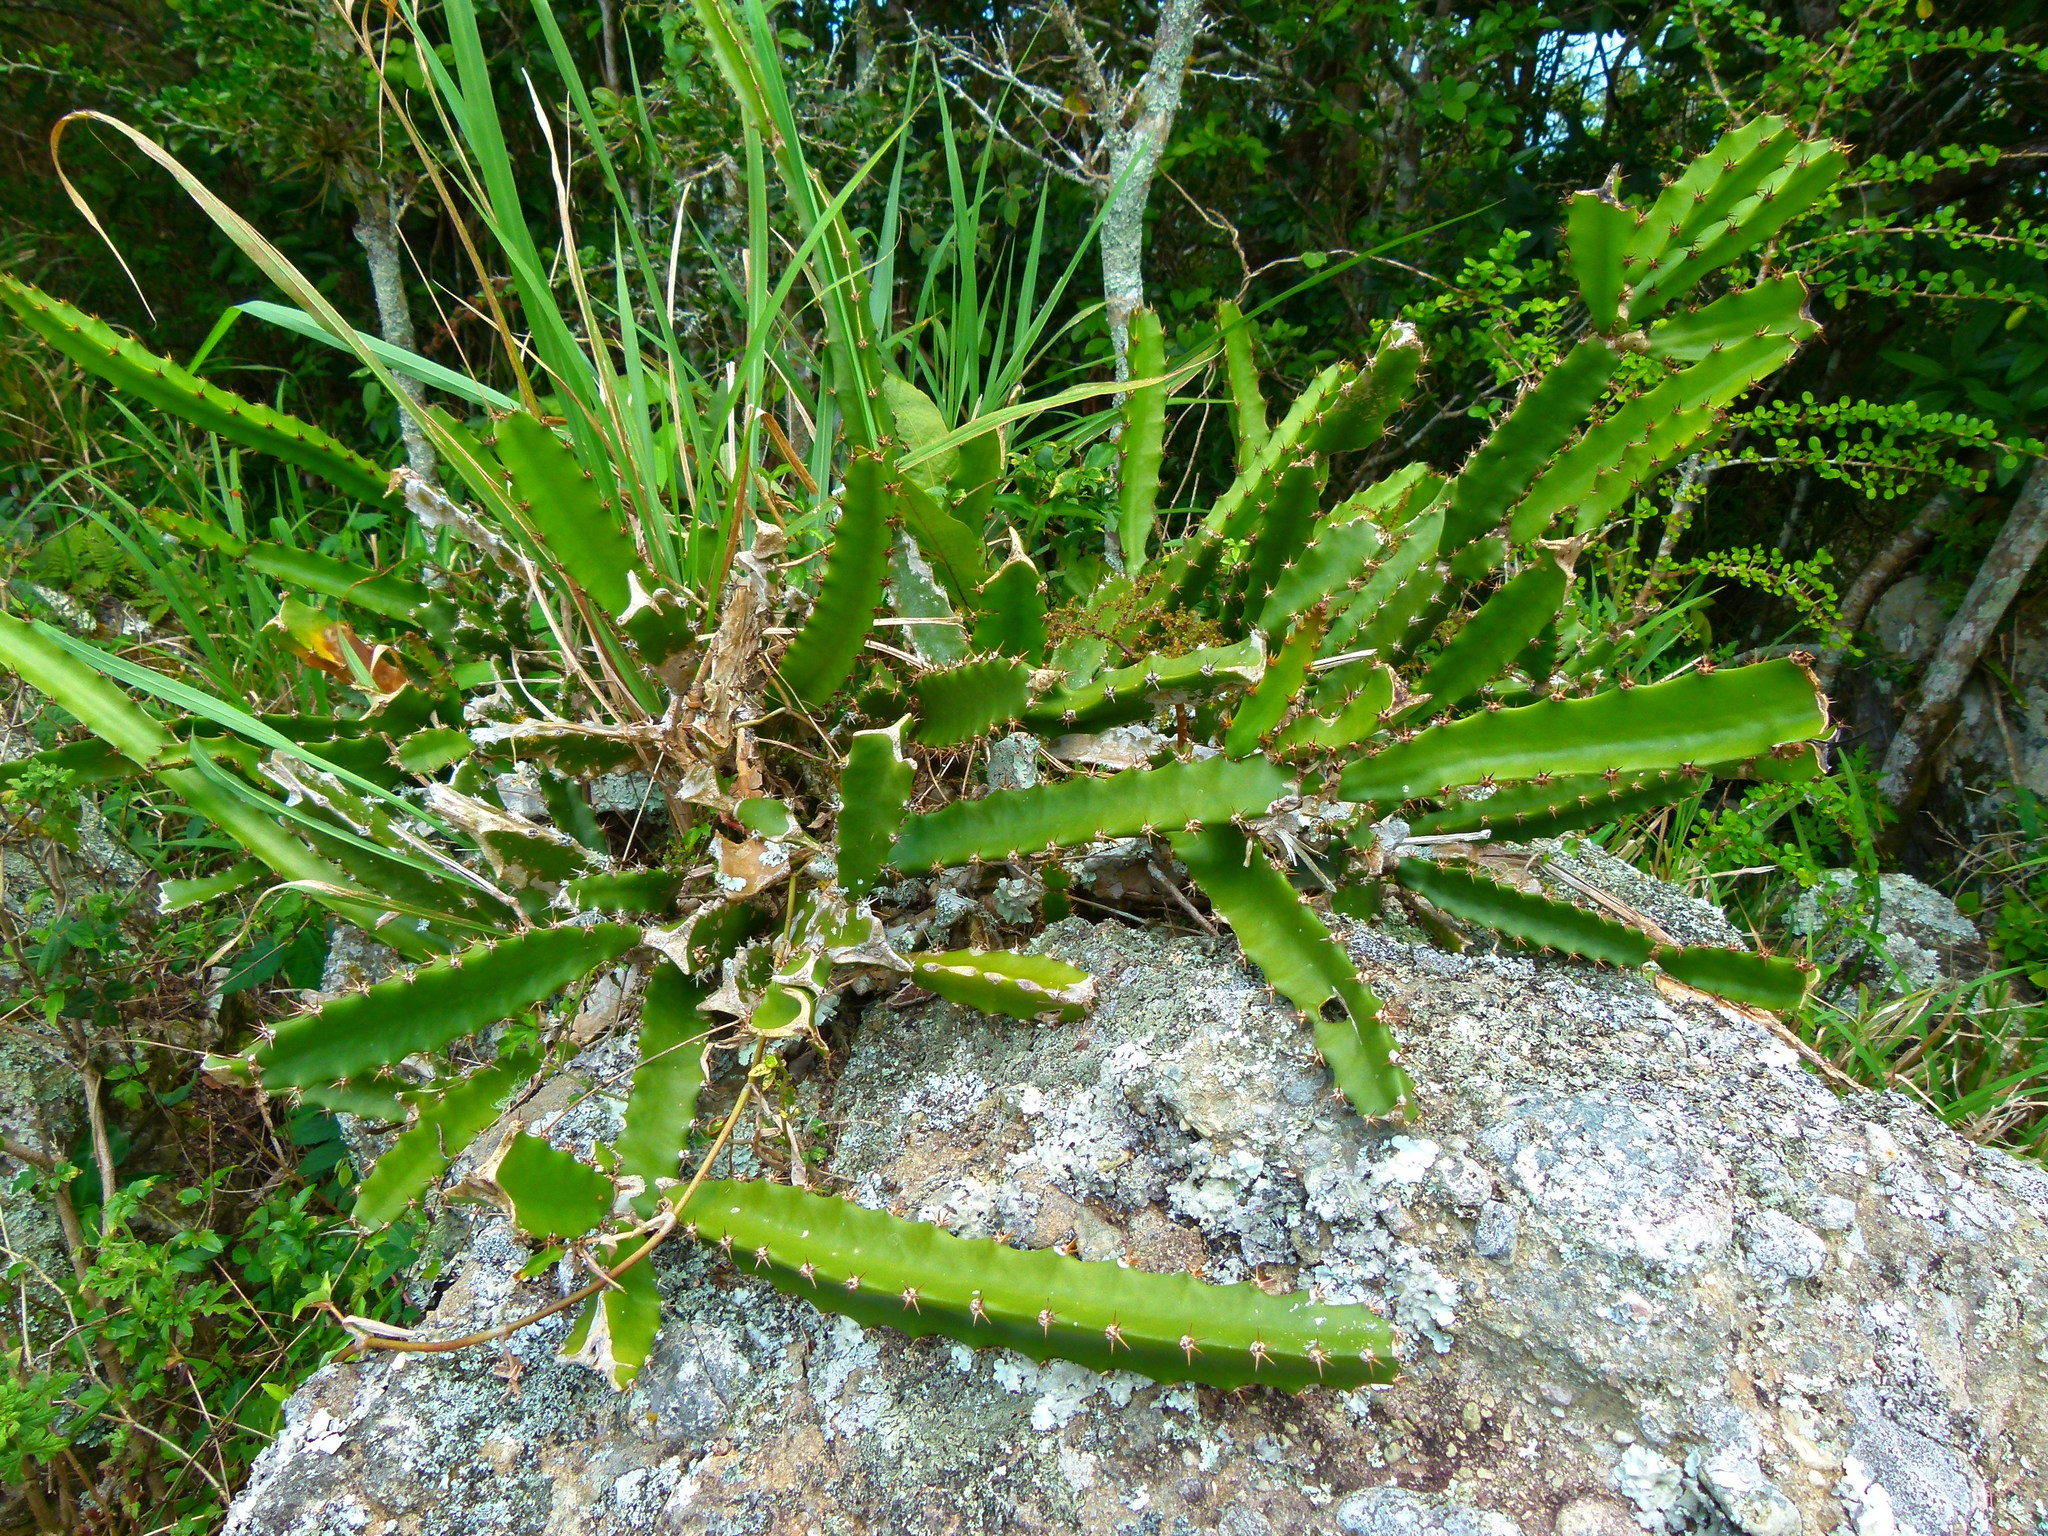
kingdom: Plantae
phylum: Tracheophyta
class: Magnoliopsida
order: Caryophyllales
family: Cactaceae
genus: Selenicereus
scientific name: Selenicereus triangularis
